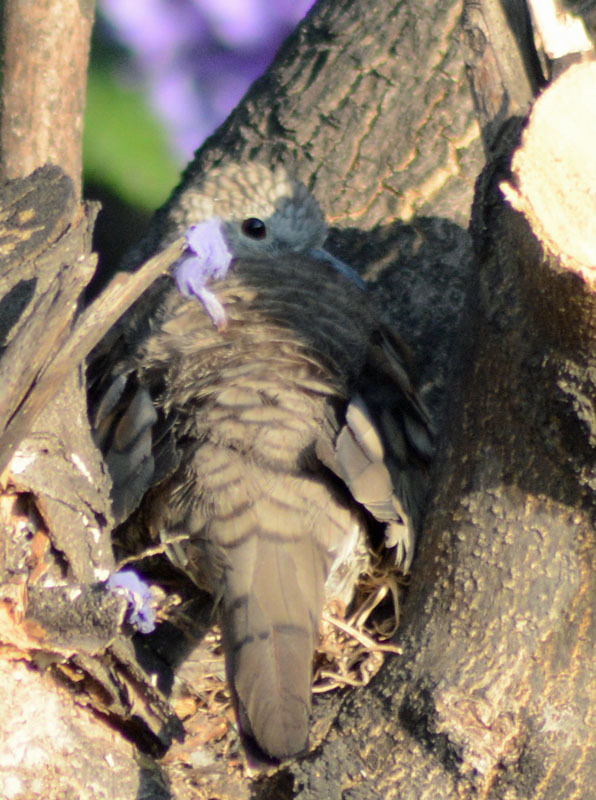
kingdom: Animalia
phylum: Chordata
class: Aves
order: Columbiformes
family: Columbidae
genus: Columbina
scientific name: Columbina inca
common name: Inca dove
